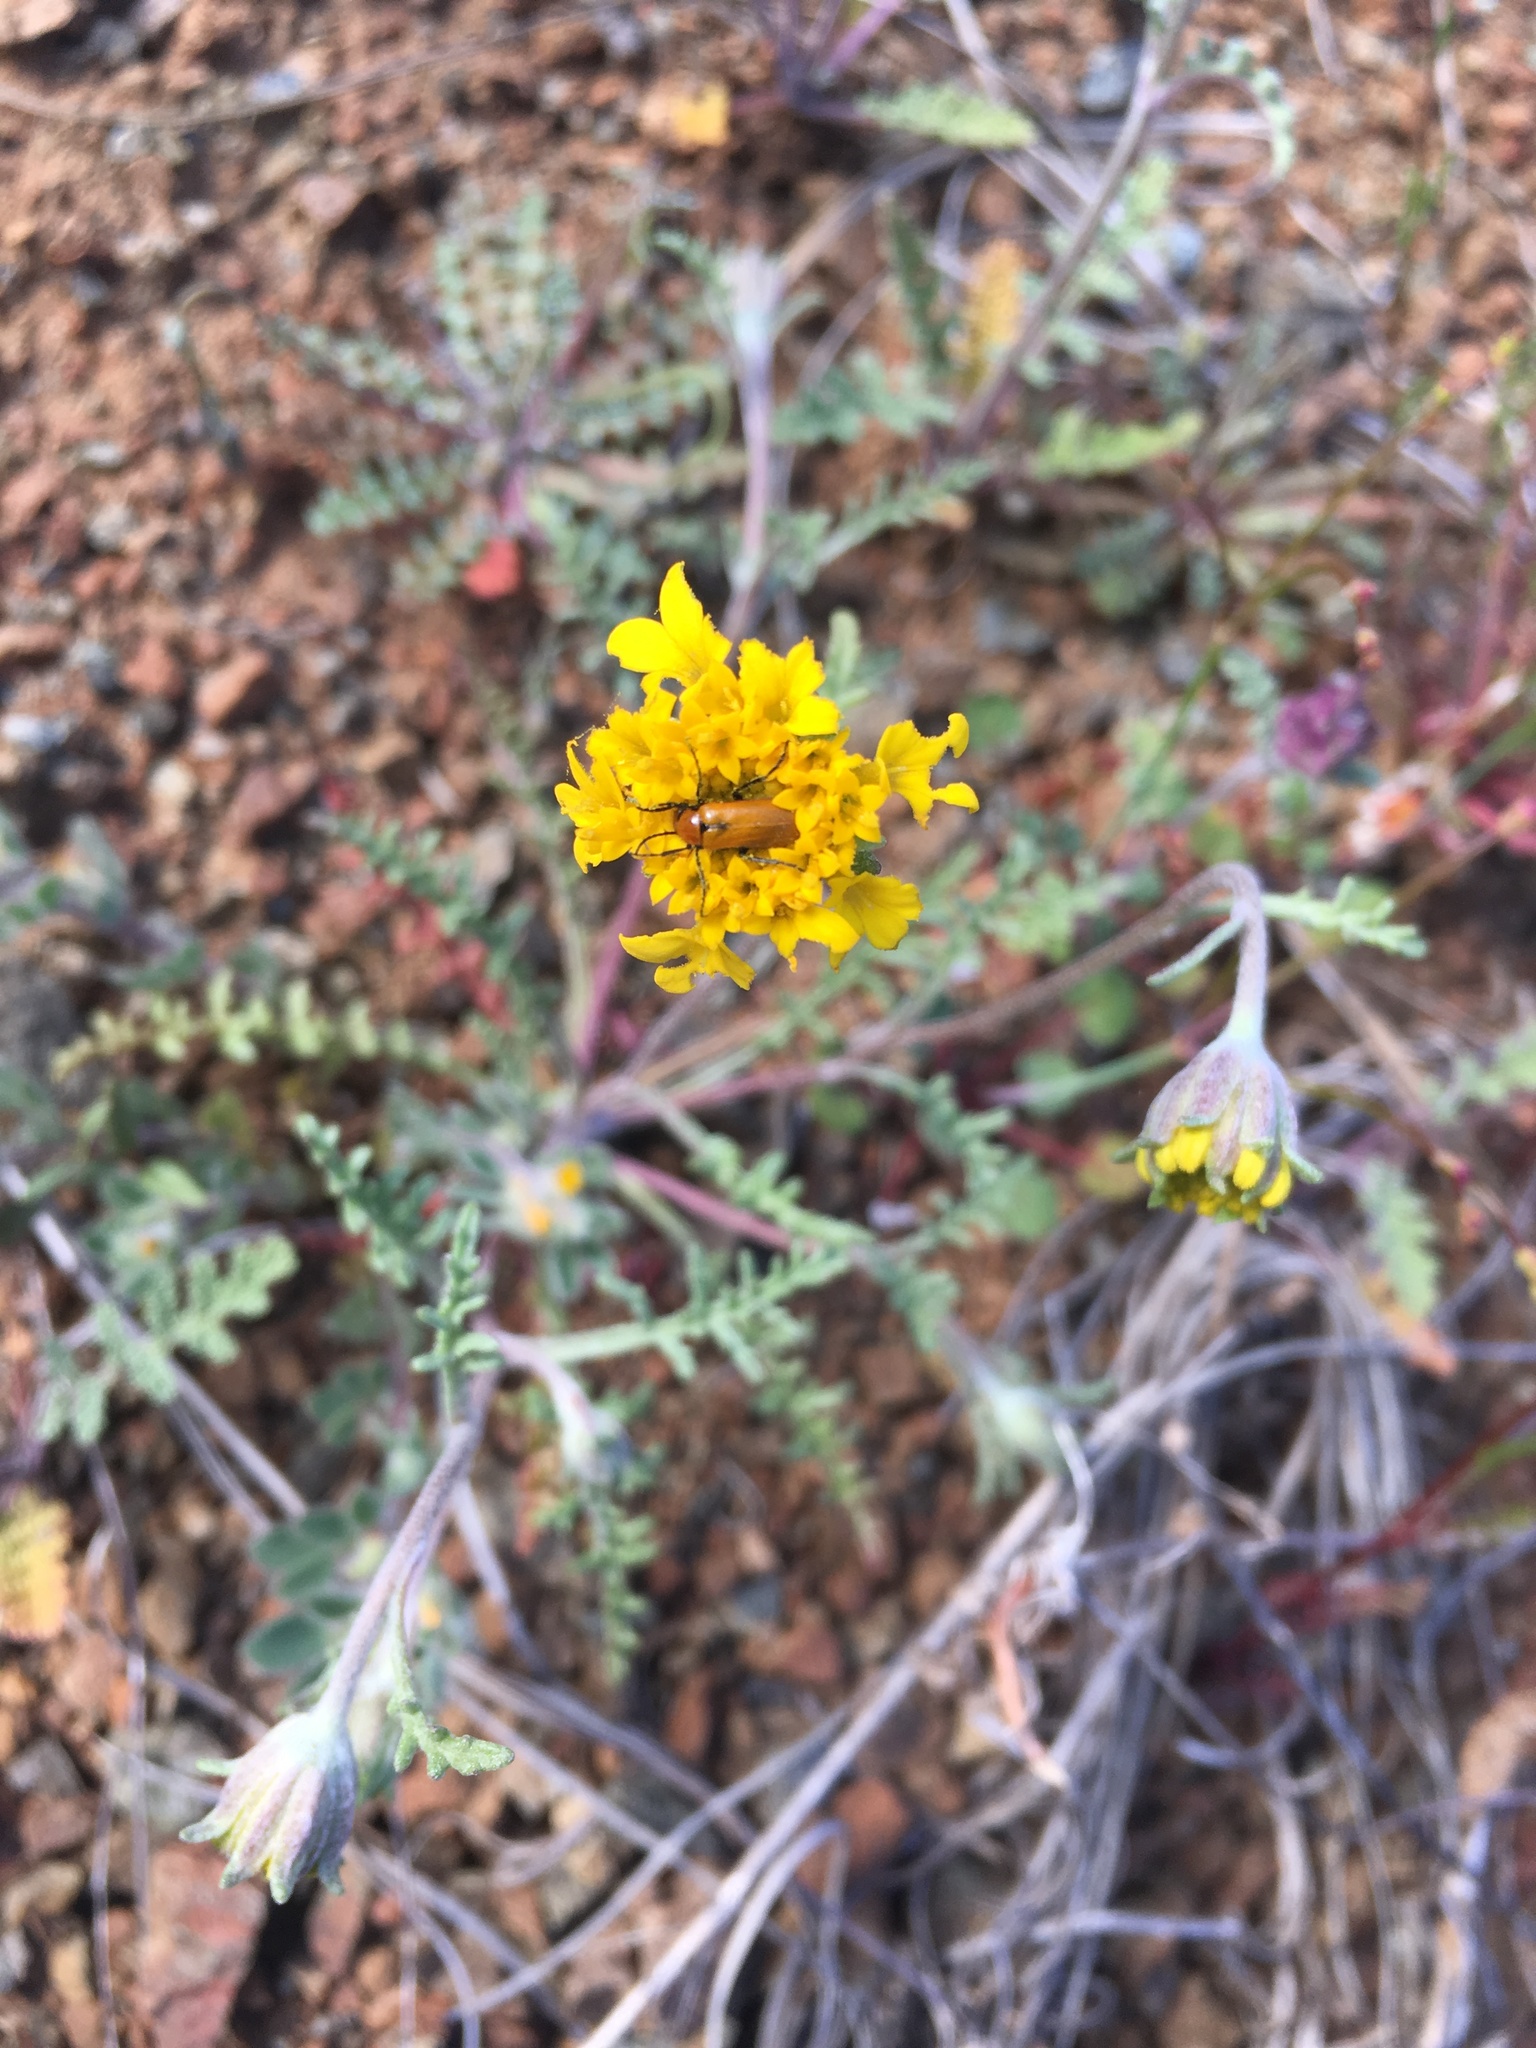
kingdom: Plantae
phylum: Tracheophyta
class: Magnoliopsida
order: Asterales
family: Asteraceae
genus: Chaenactis
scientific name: Chaenactis glabriuscula
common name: Yellow pincushion
